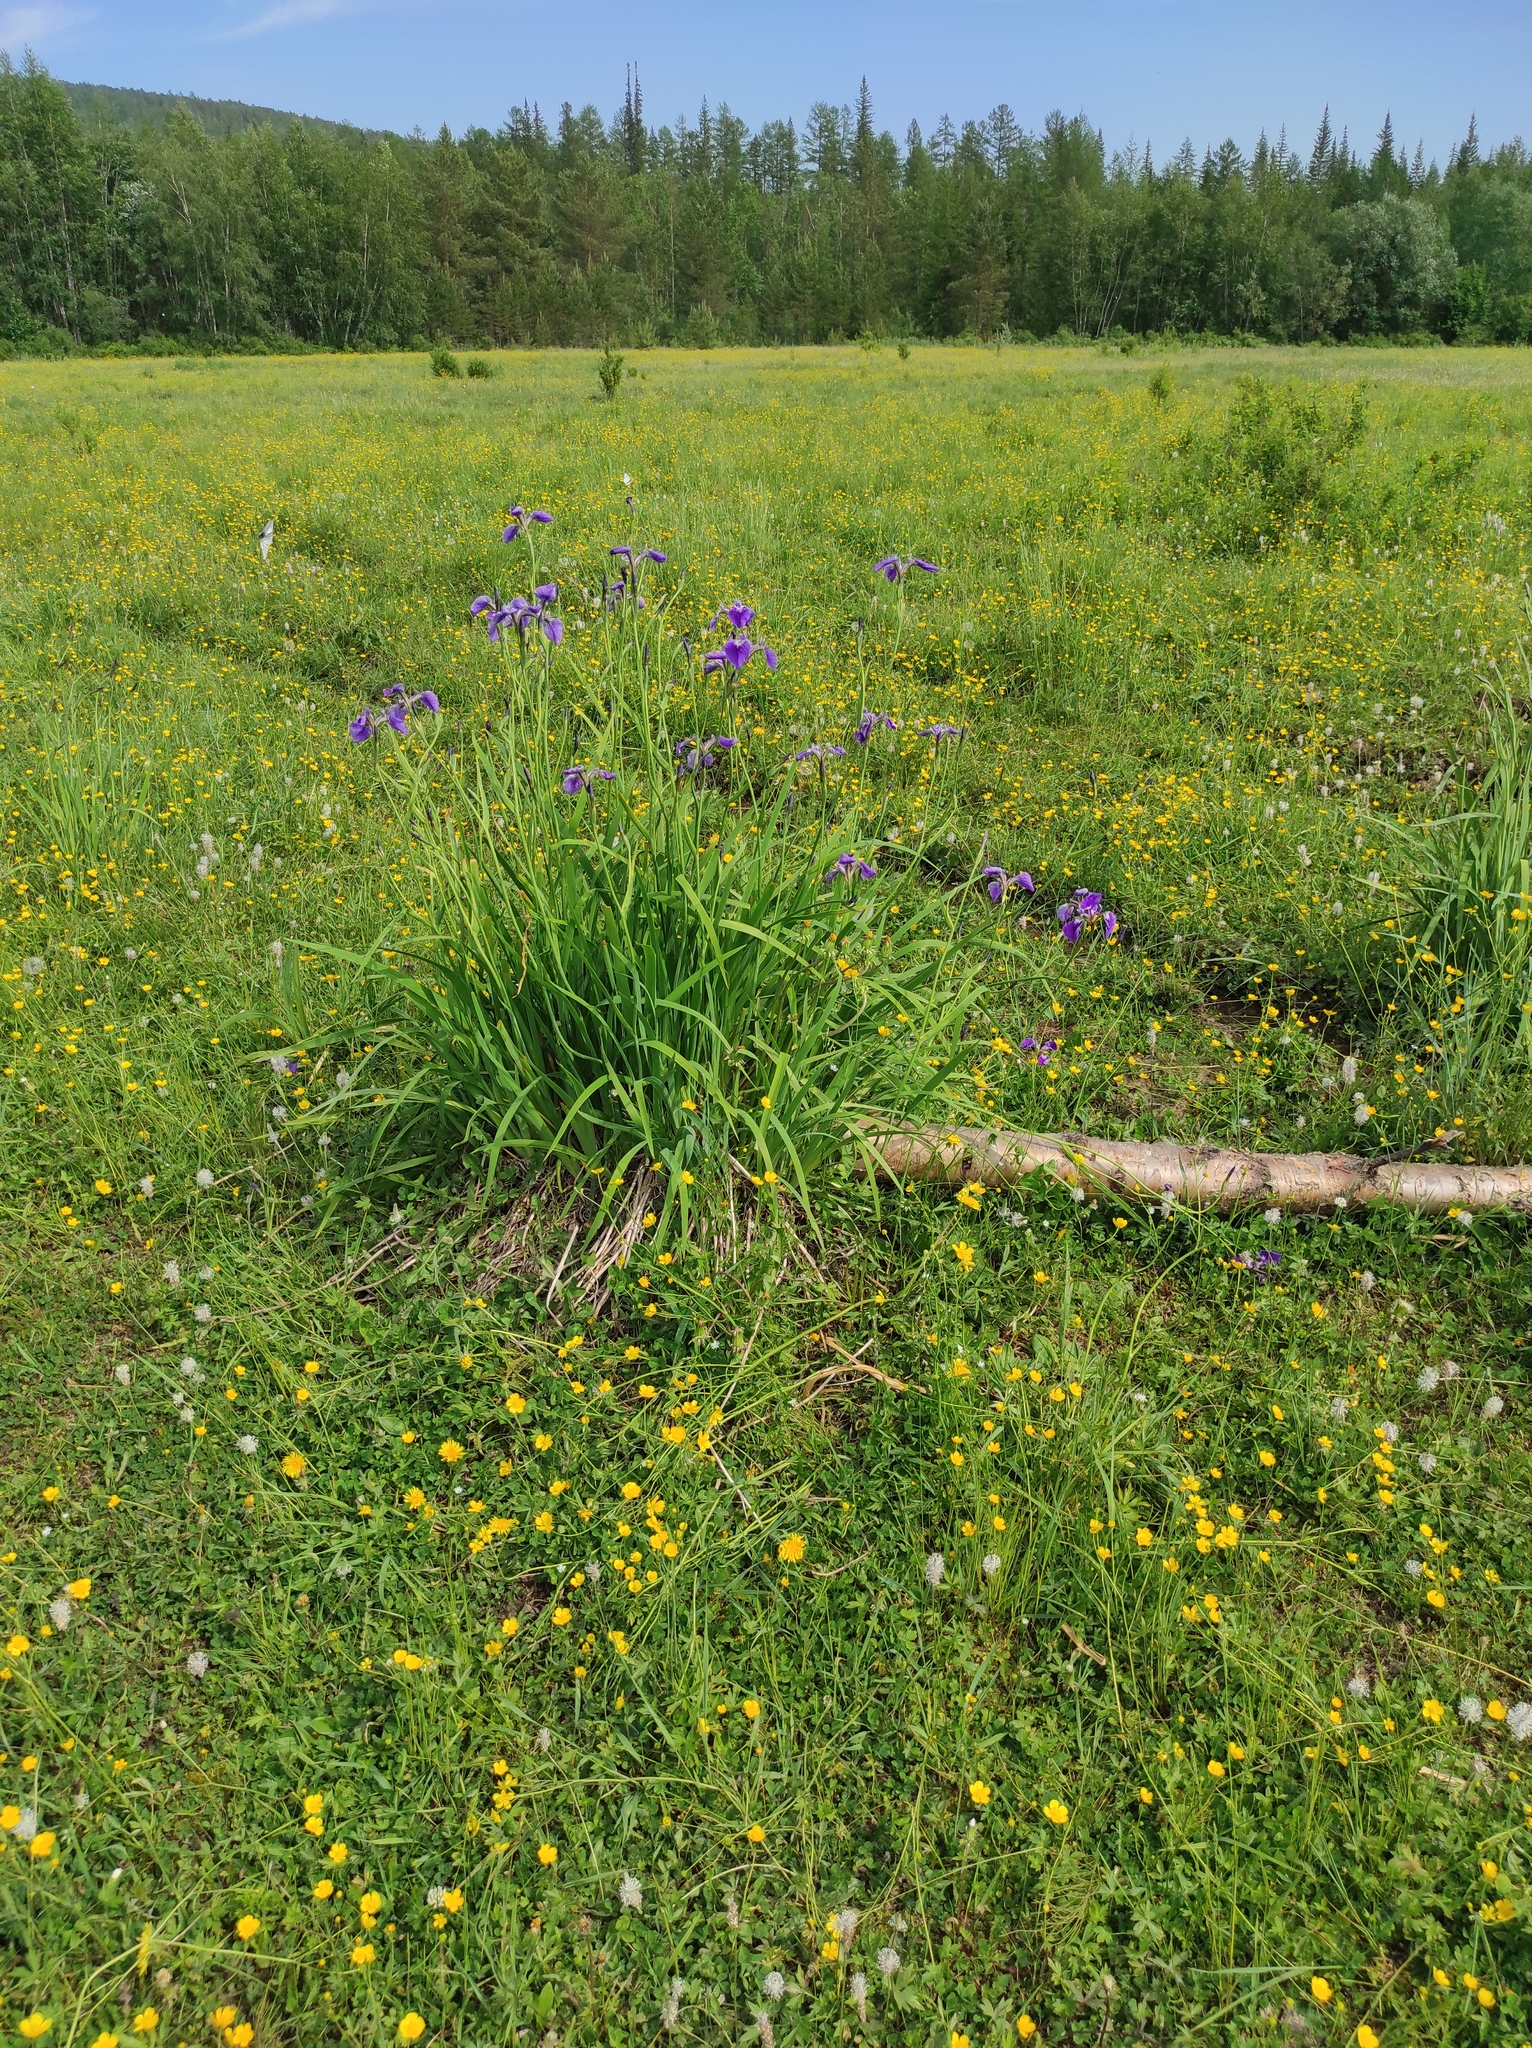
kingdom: Plantae
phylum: Tracheophyta
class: Liliopsida
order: Asparagales
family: Iridaceae
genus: Iris
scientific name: Iris setosa
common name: Arctic blue flag
